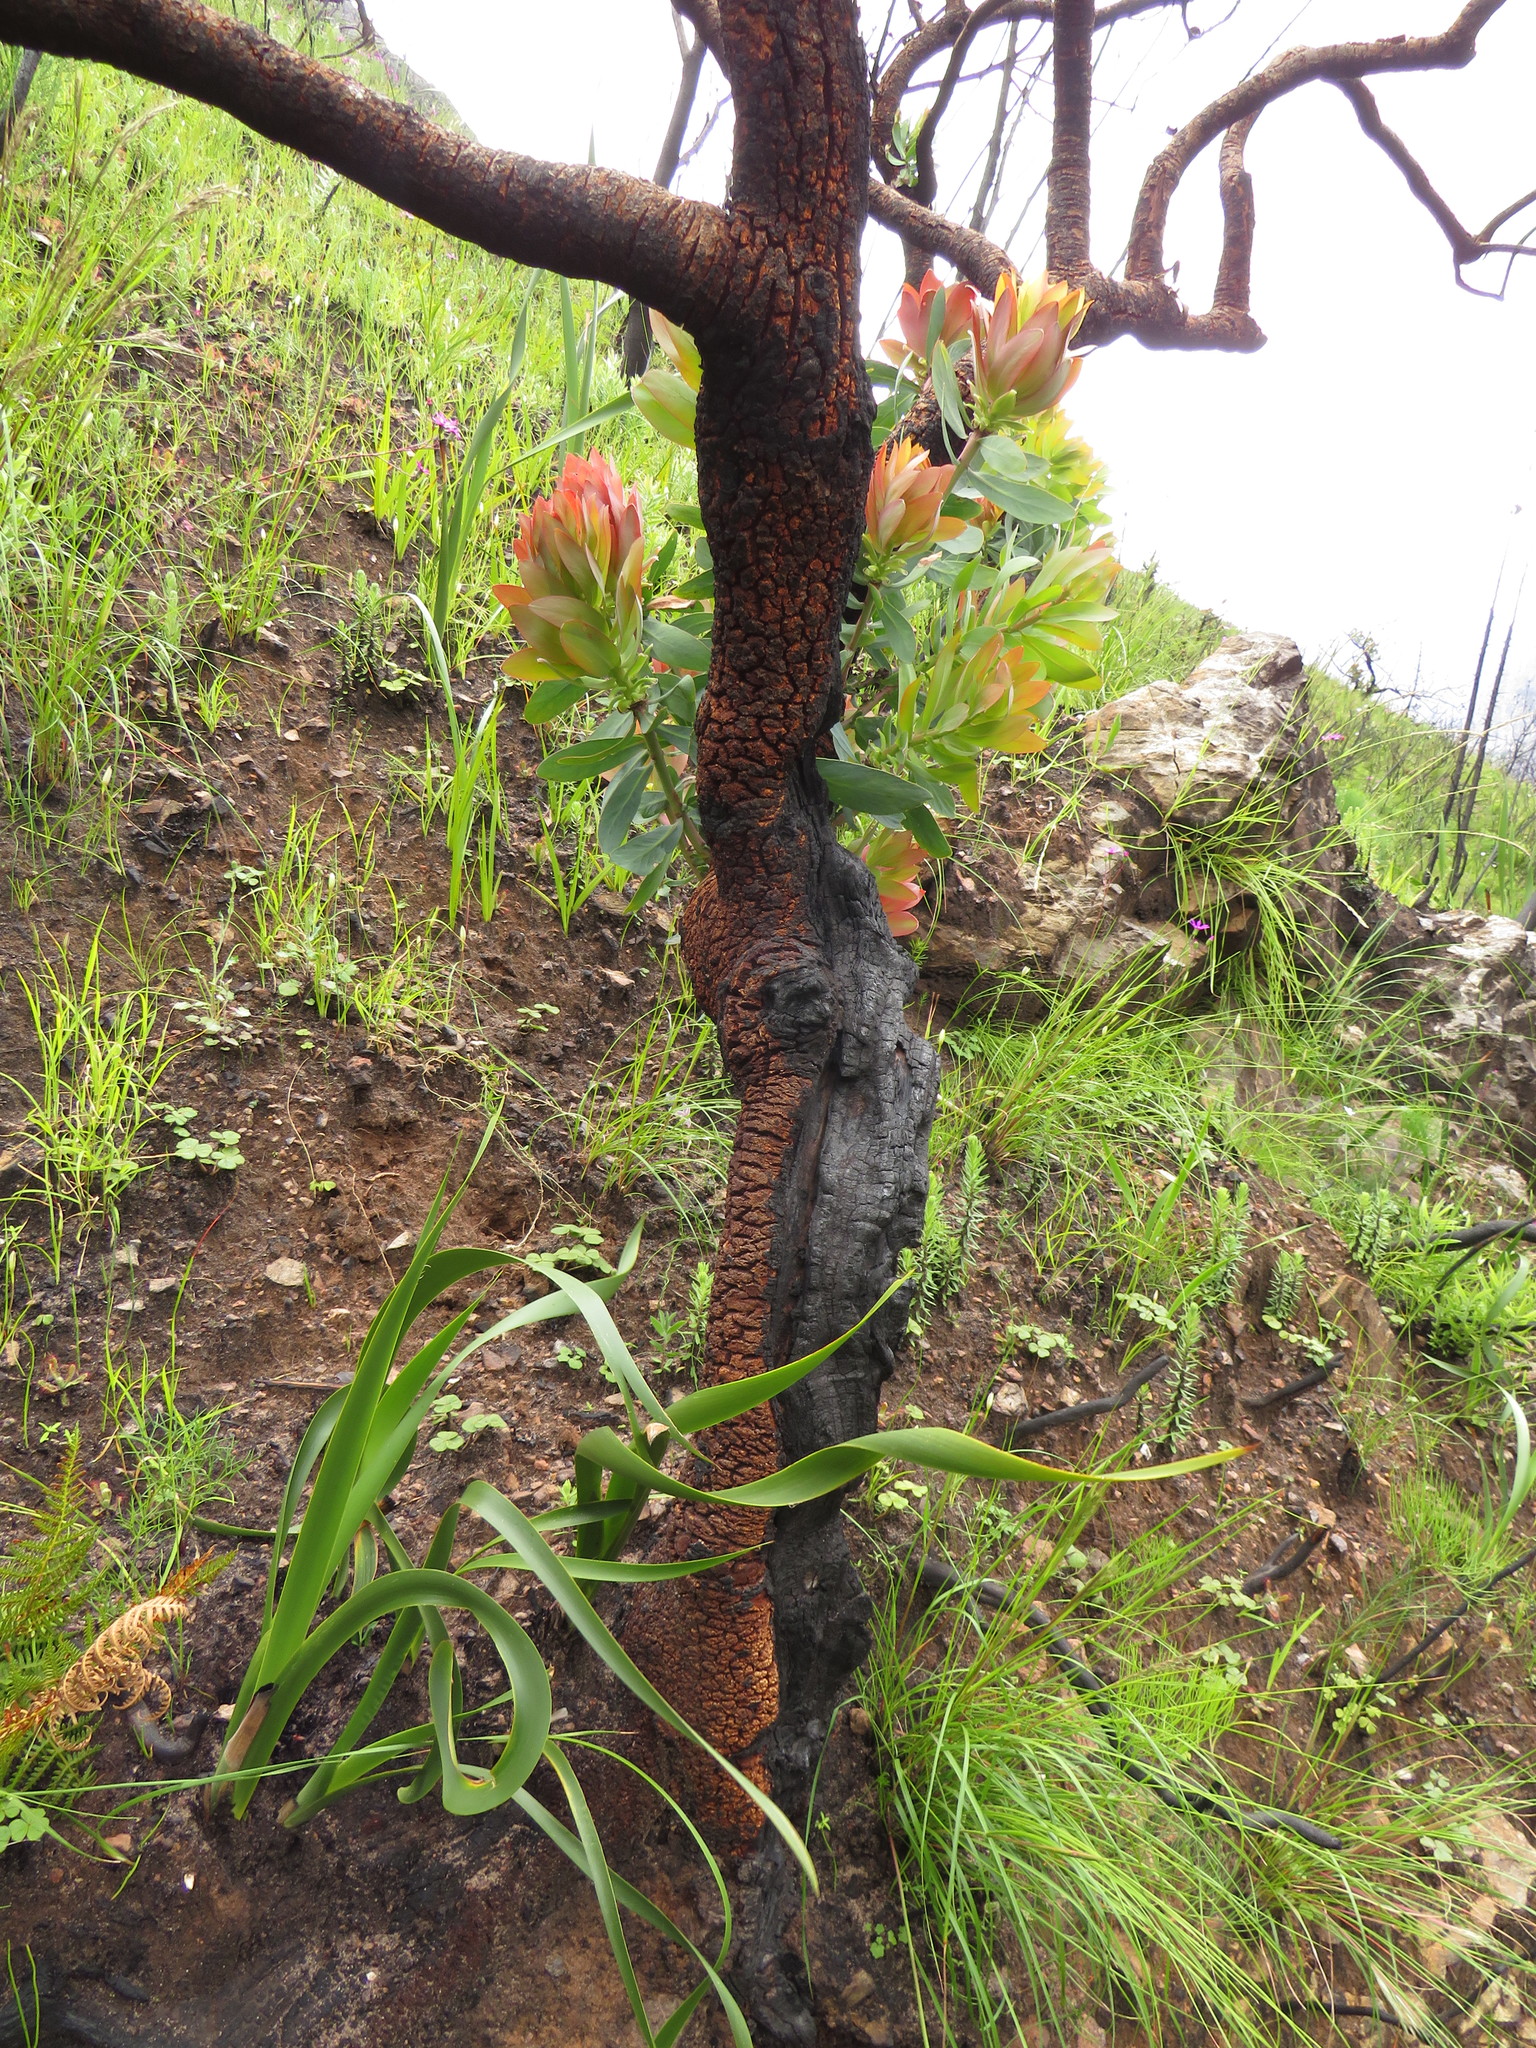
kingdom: Plantae
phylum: Tracheophyta
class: Magnoliopsida
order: Proteales
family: Proteaceae
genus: Protea
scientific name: Protea nitida
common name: Tree protea
